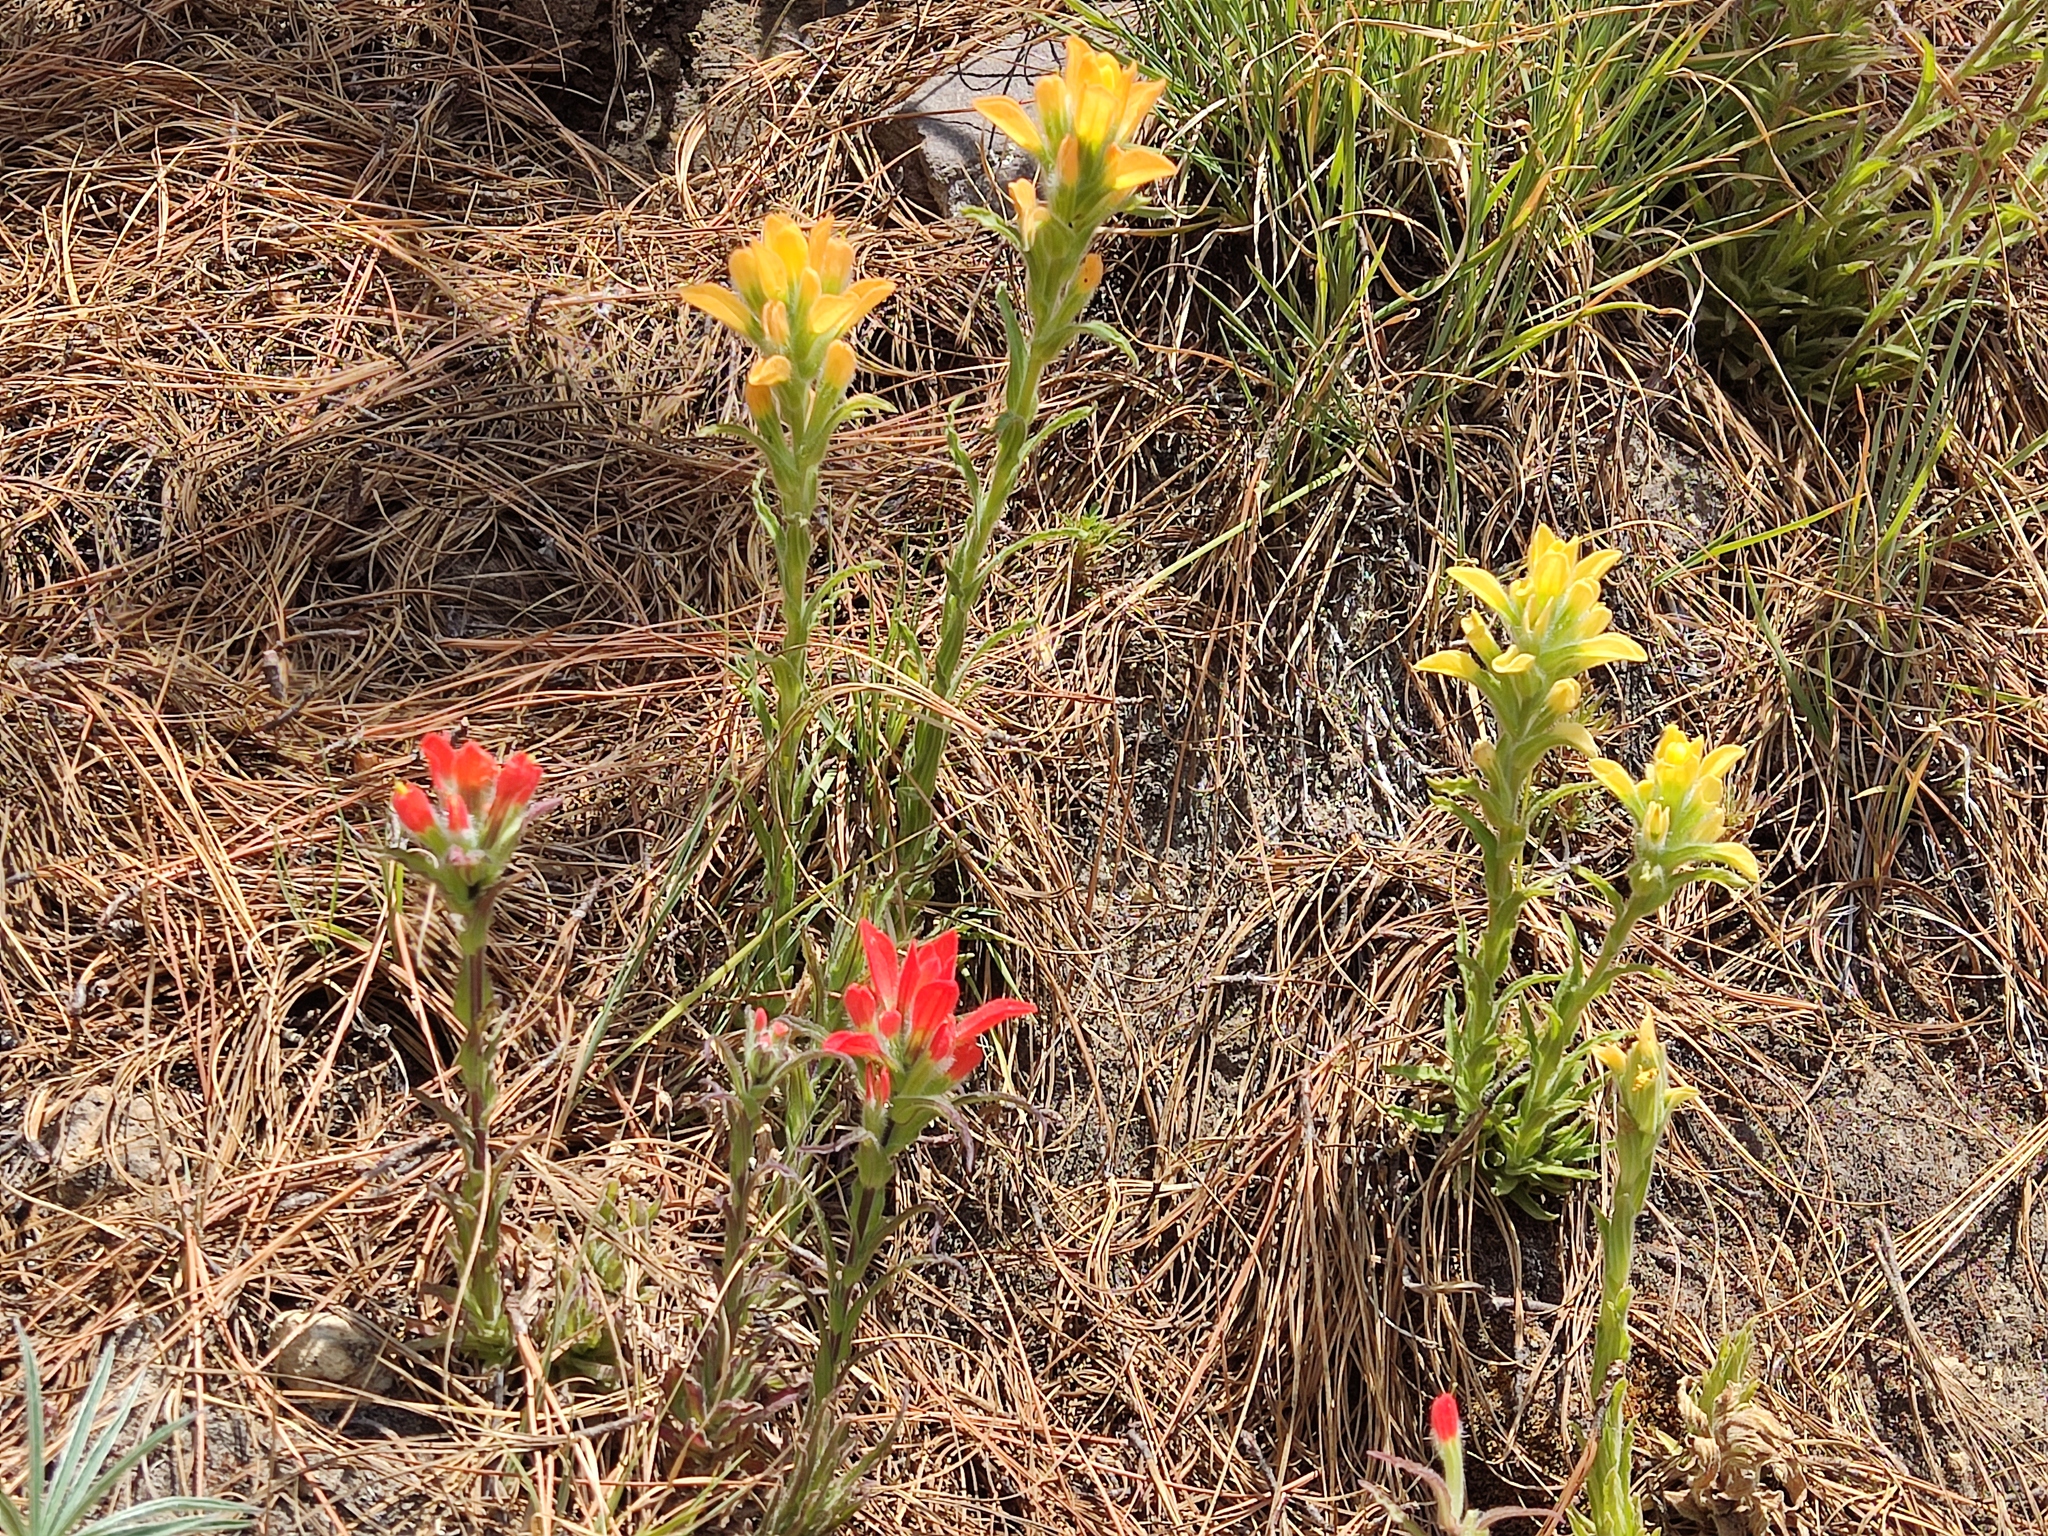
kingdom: Plantae
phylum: Tracheophyta
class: Magnoliopsida
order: Lamiales
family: Orobanchaceae
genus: Castilleja
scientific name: Castilleja scorzonerifolia
